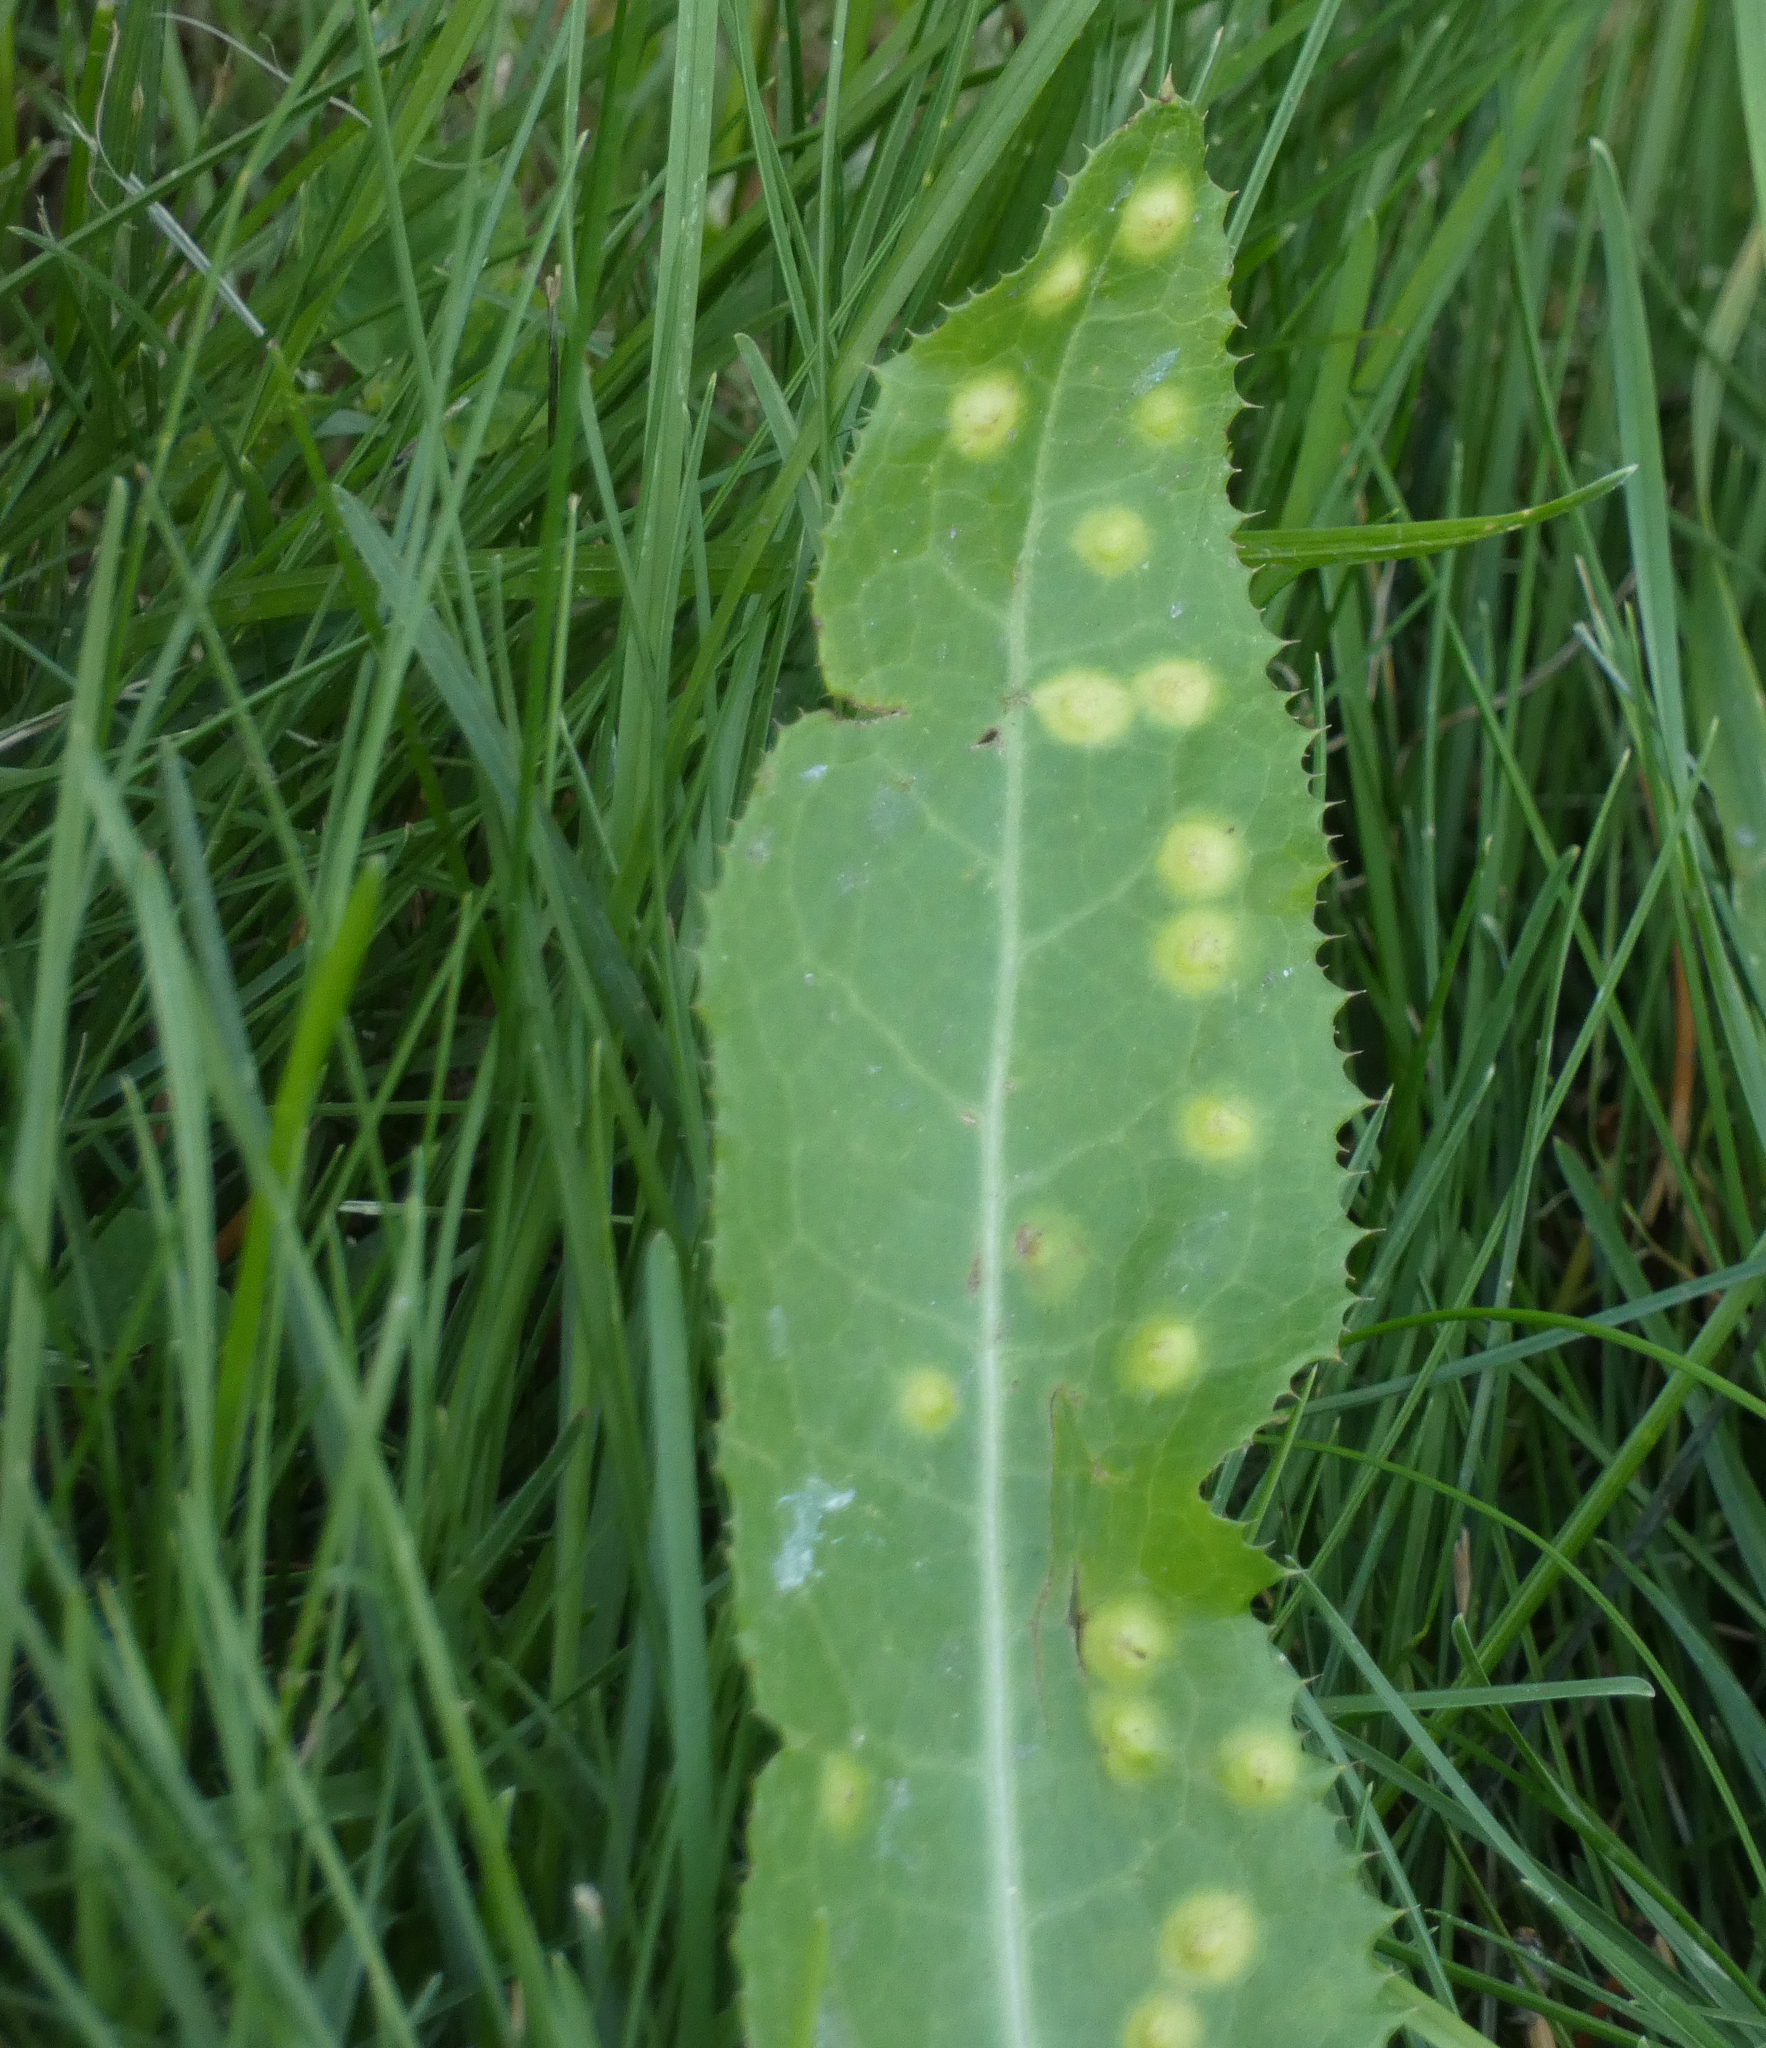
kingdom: Animalia
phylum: Arthropoda
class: Insecta
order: Diptera
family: Cecidomyiidae
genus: Cystiphora
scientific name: Cystiphora sonchi
